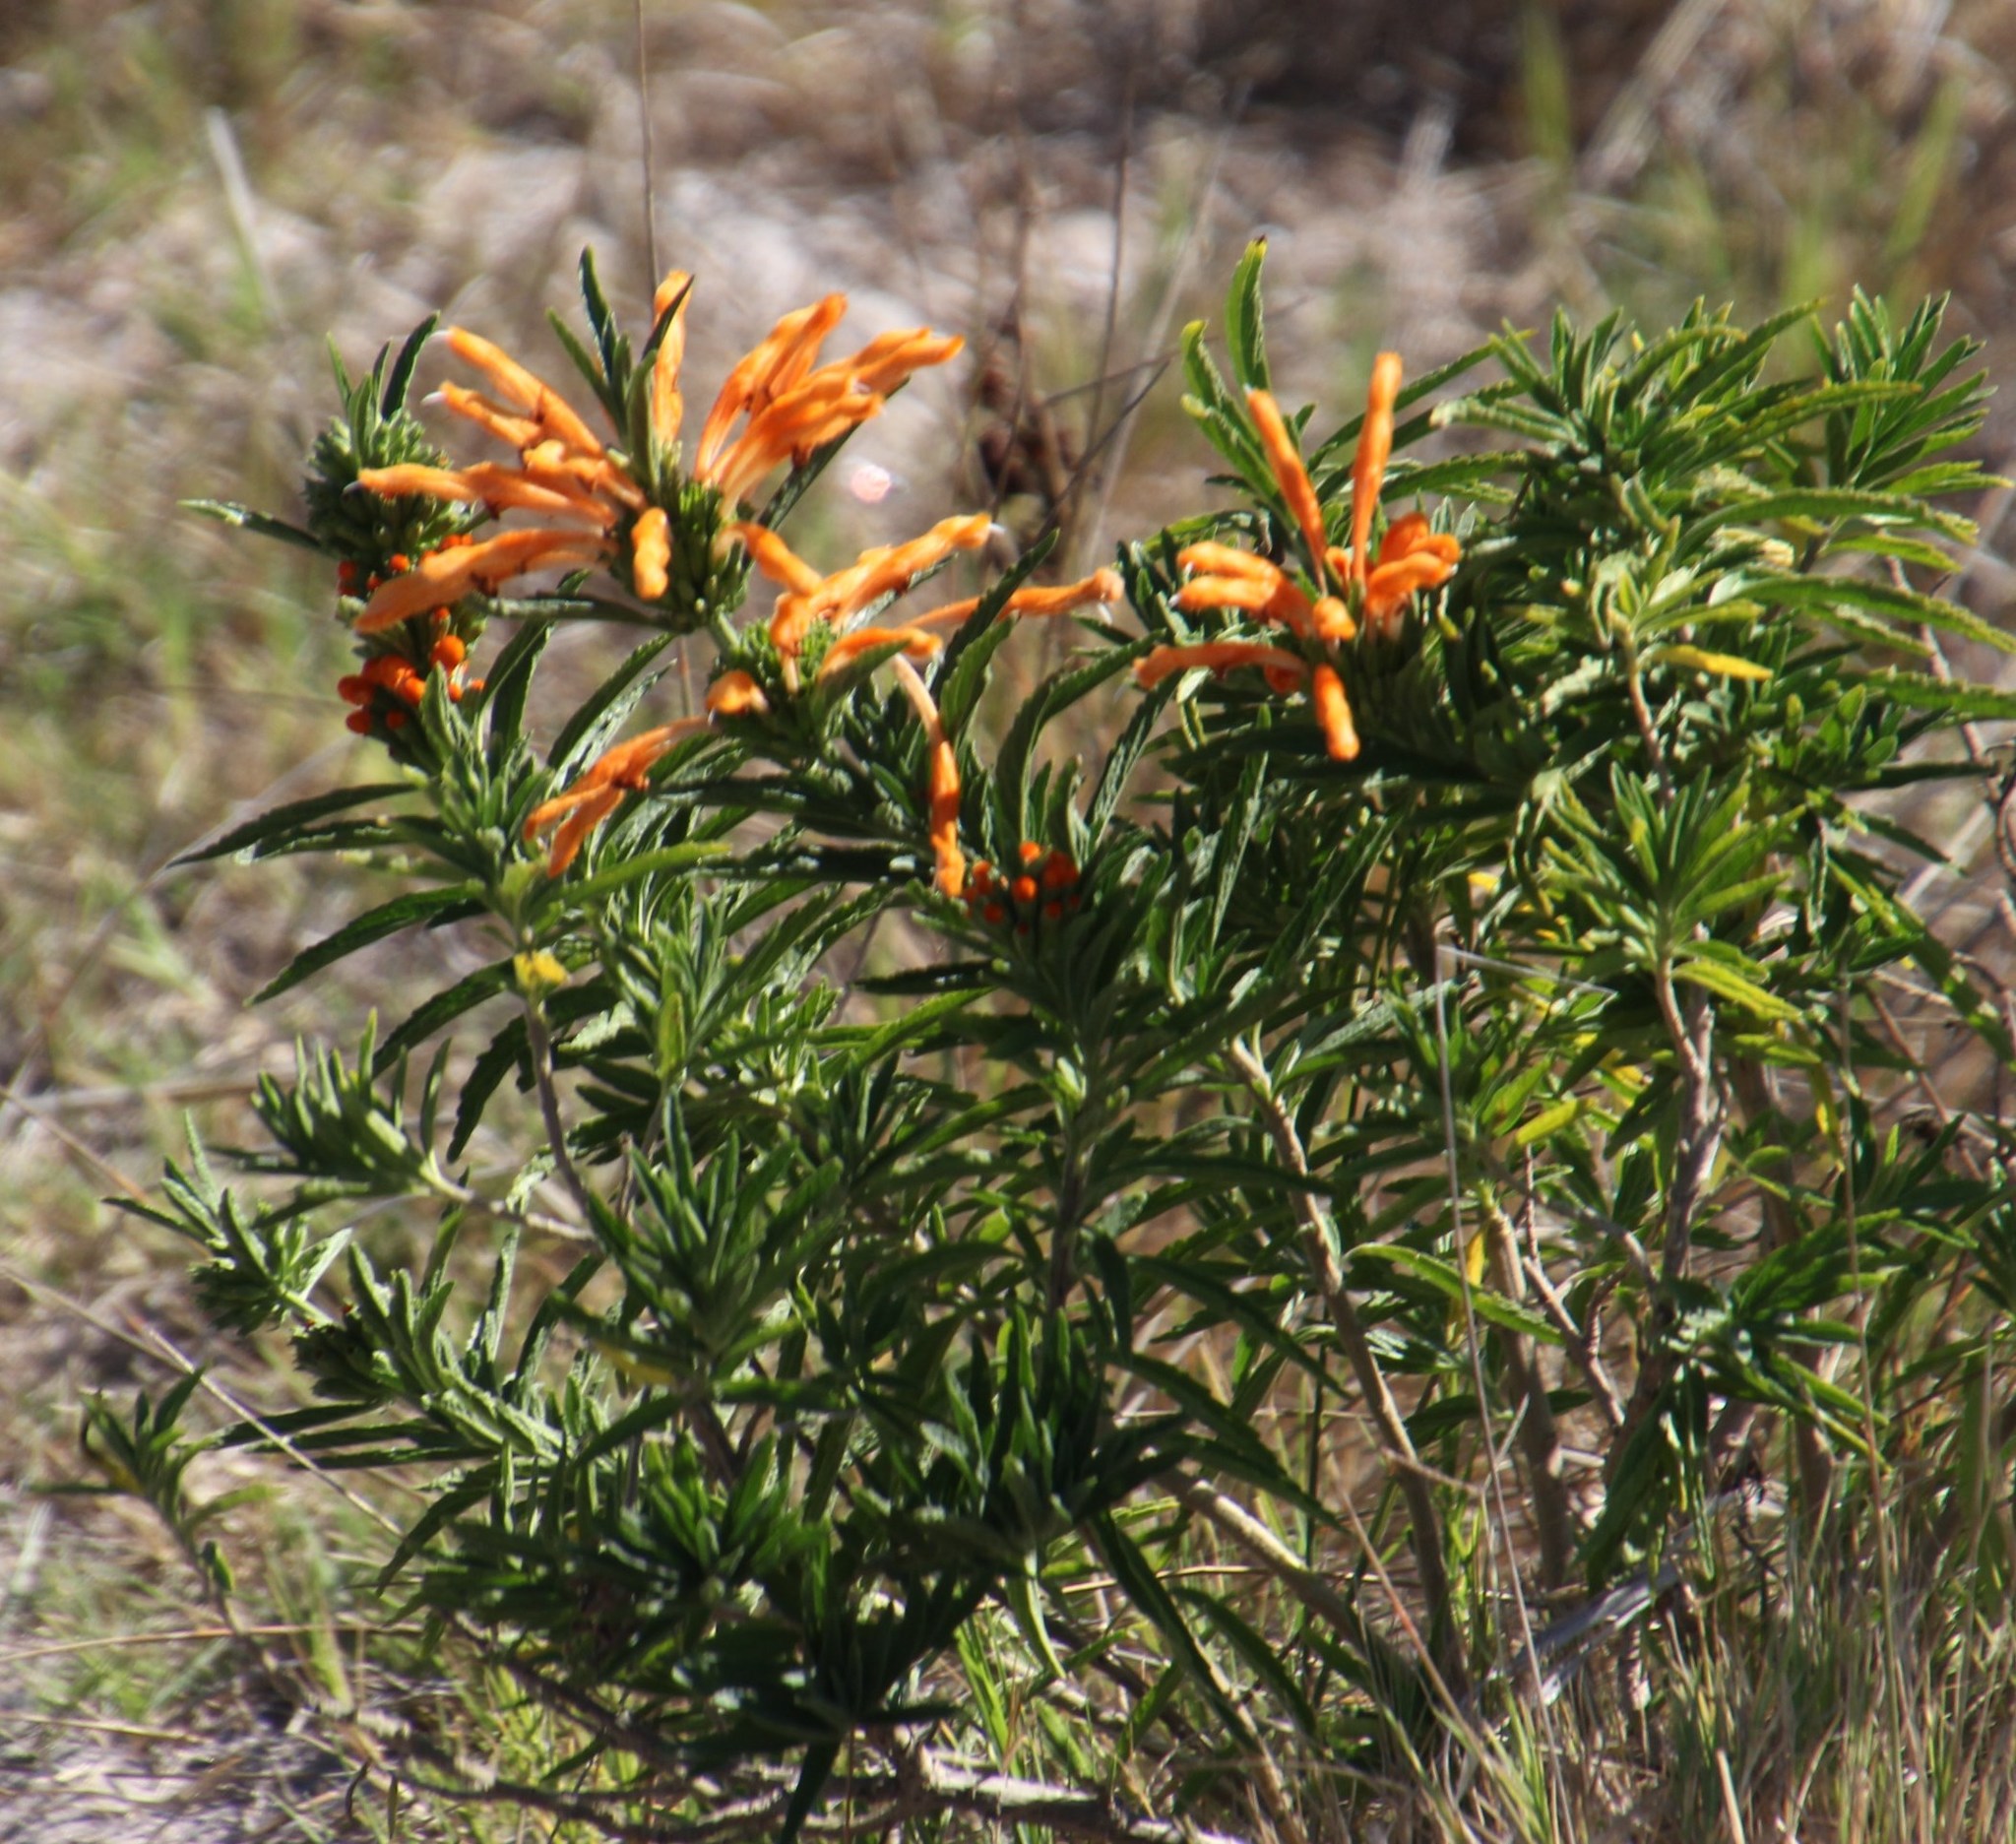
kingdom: Plantae
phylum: Tracheophyta
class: Magnoliopsida
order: Lamiales
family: Lamiaceae
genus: Leonotis
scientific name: Leonotis leonurus
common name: Lion's ear
